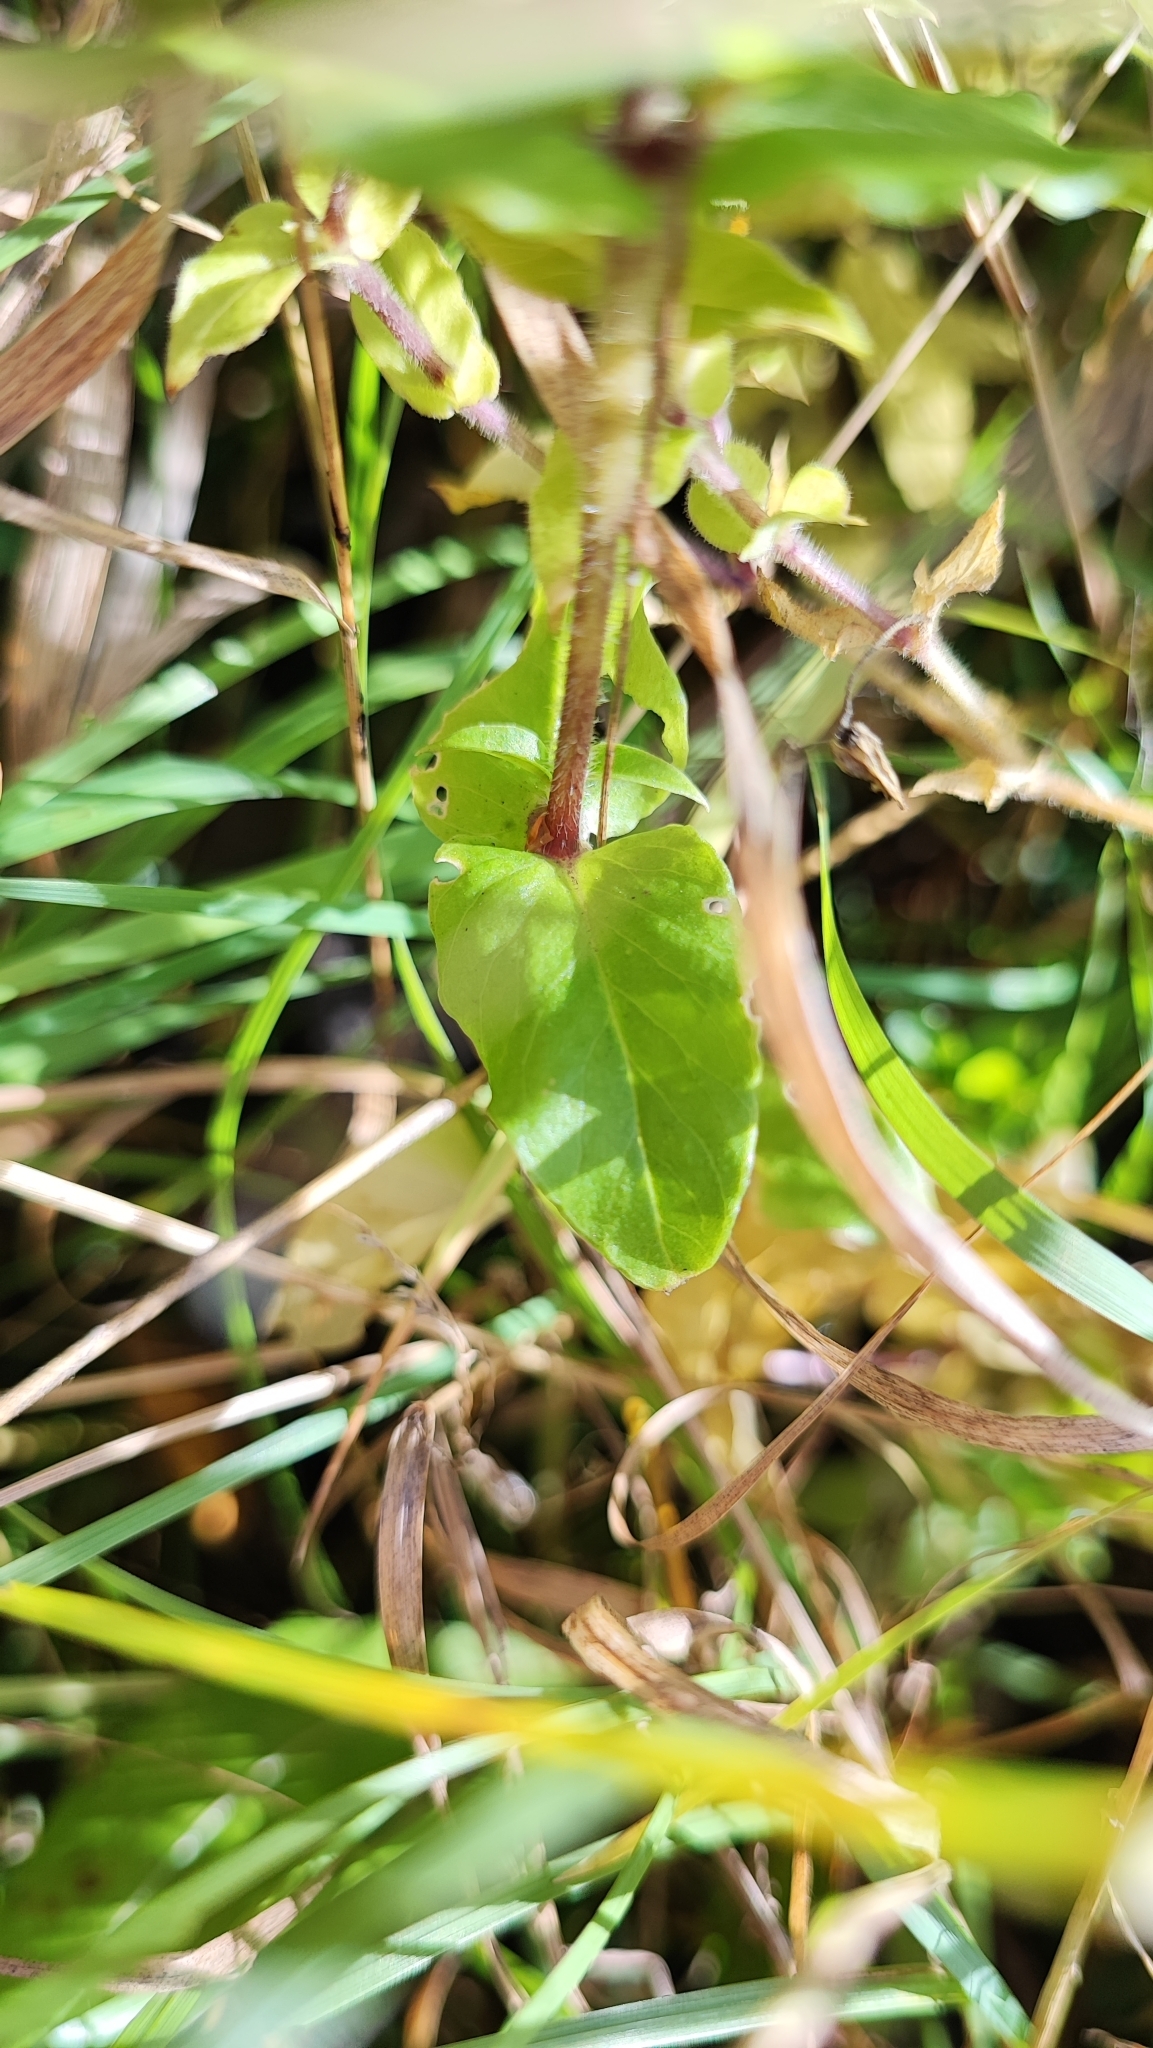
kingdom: Plantae
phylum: Tracheophyta
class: Magnoliopsida
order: Caryophyllales
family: Caryophyllaceae
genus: Stellaria
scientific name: Stellaria aquatica
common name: Water chickweed
